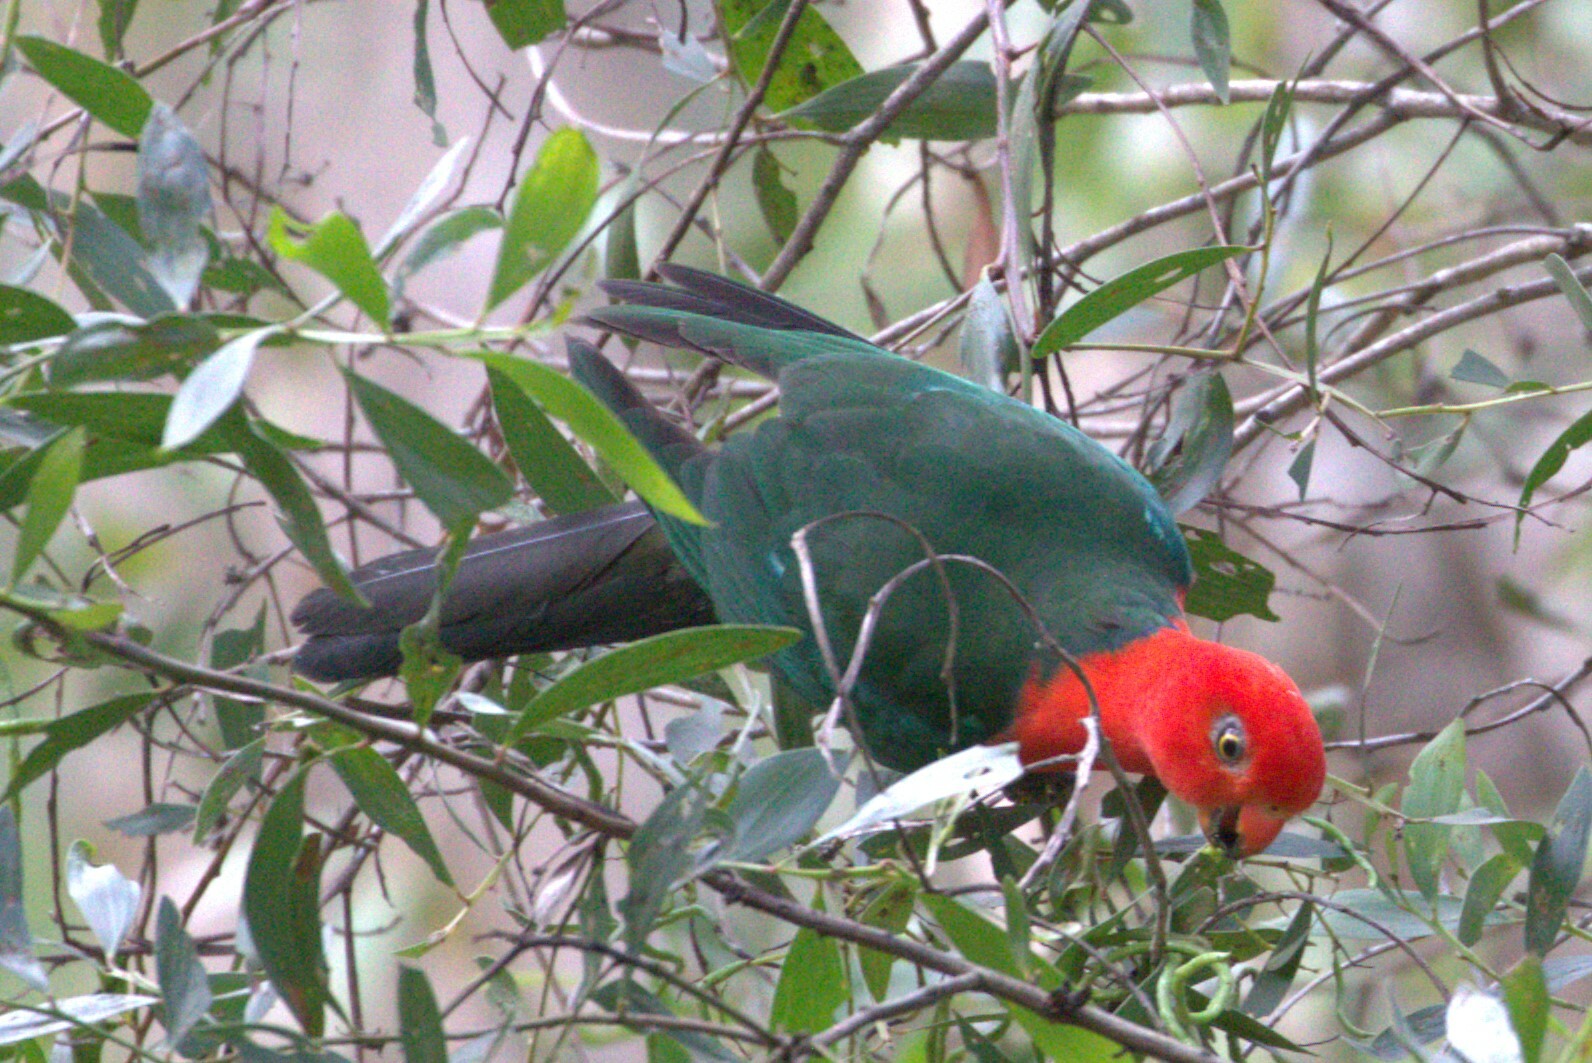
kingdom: Animalia
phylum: Chordata
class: Aves
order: Psittaciformes
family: Psittacidae
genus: Alisterus
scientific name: Alisterus scapularis
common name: Australian king parrot
